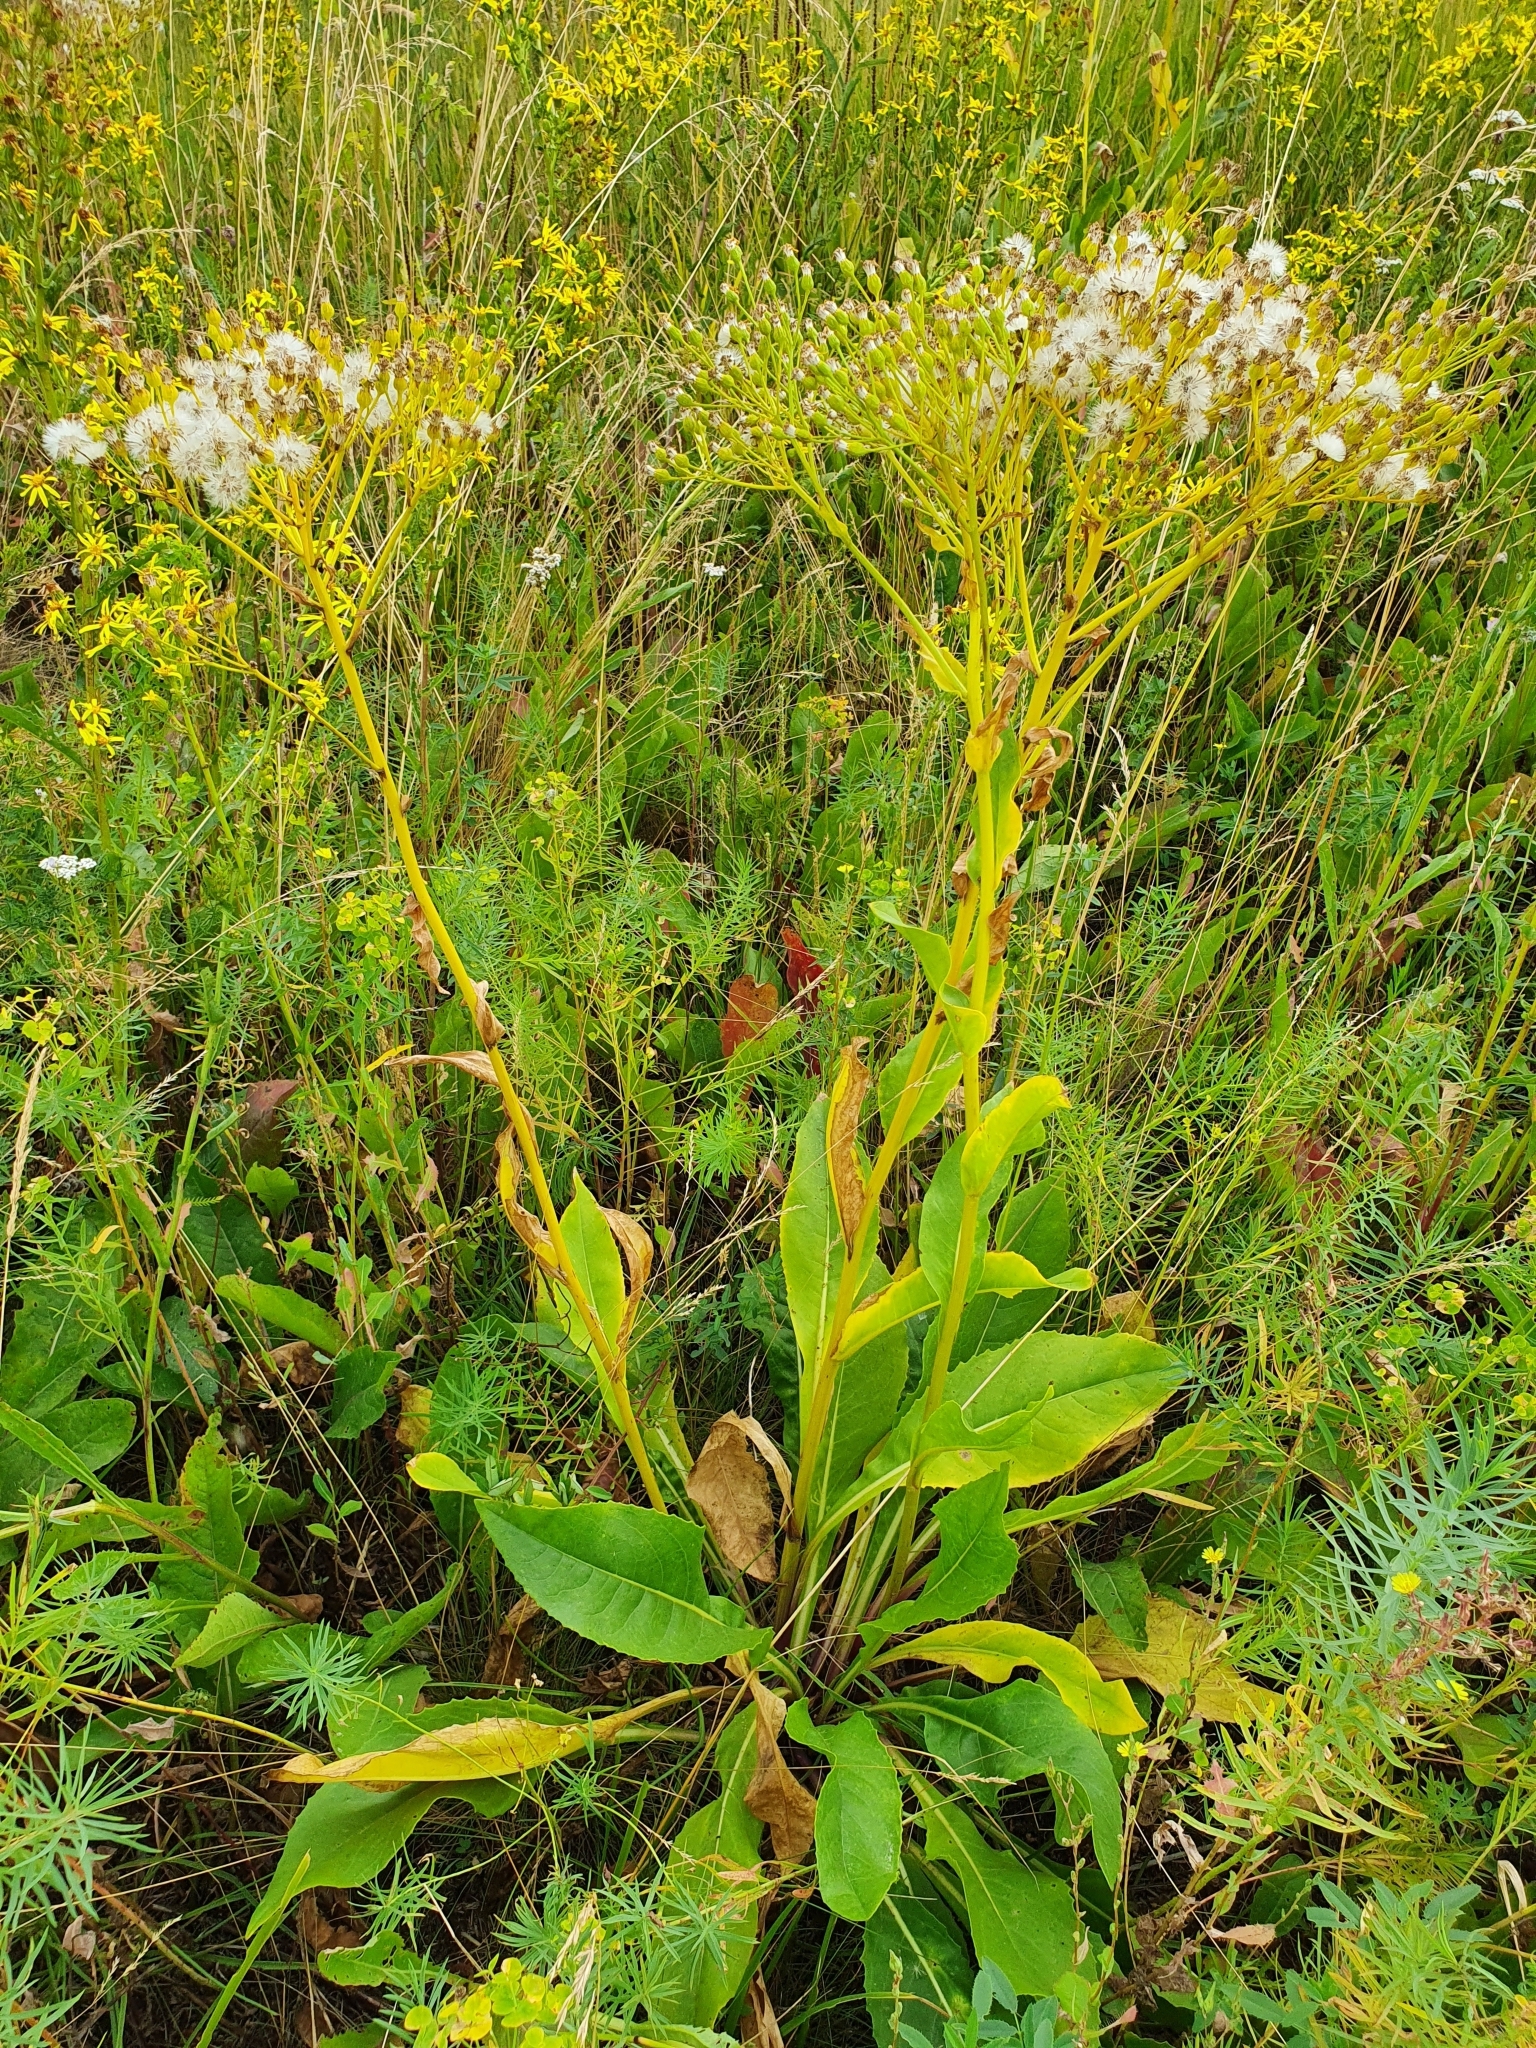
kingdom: Plantae
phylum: Tracheophyta
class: Magnoliopsida
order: Asterales
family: Asteraceae
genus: Senecio
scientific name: Senecio doria
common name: Golden ragwort
